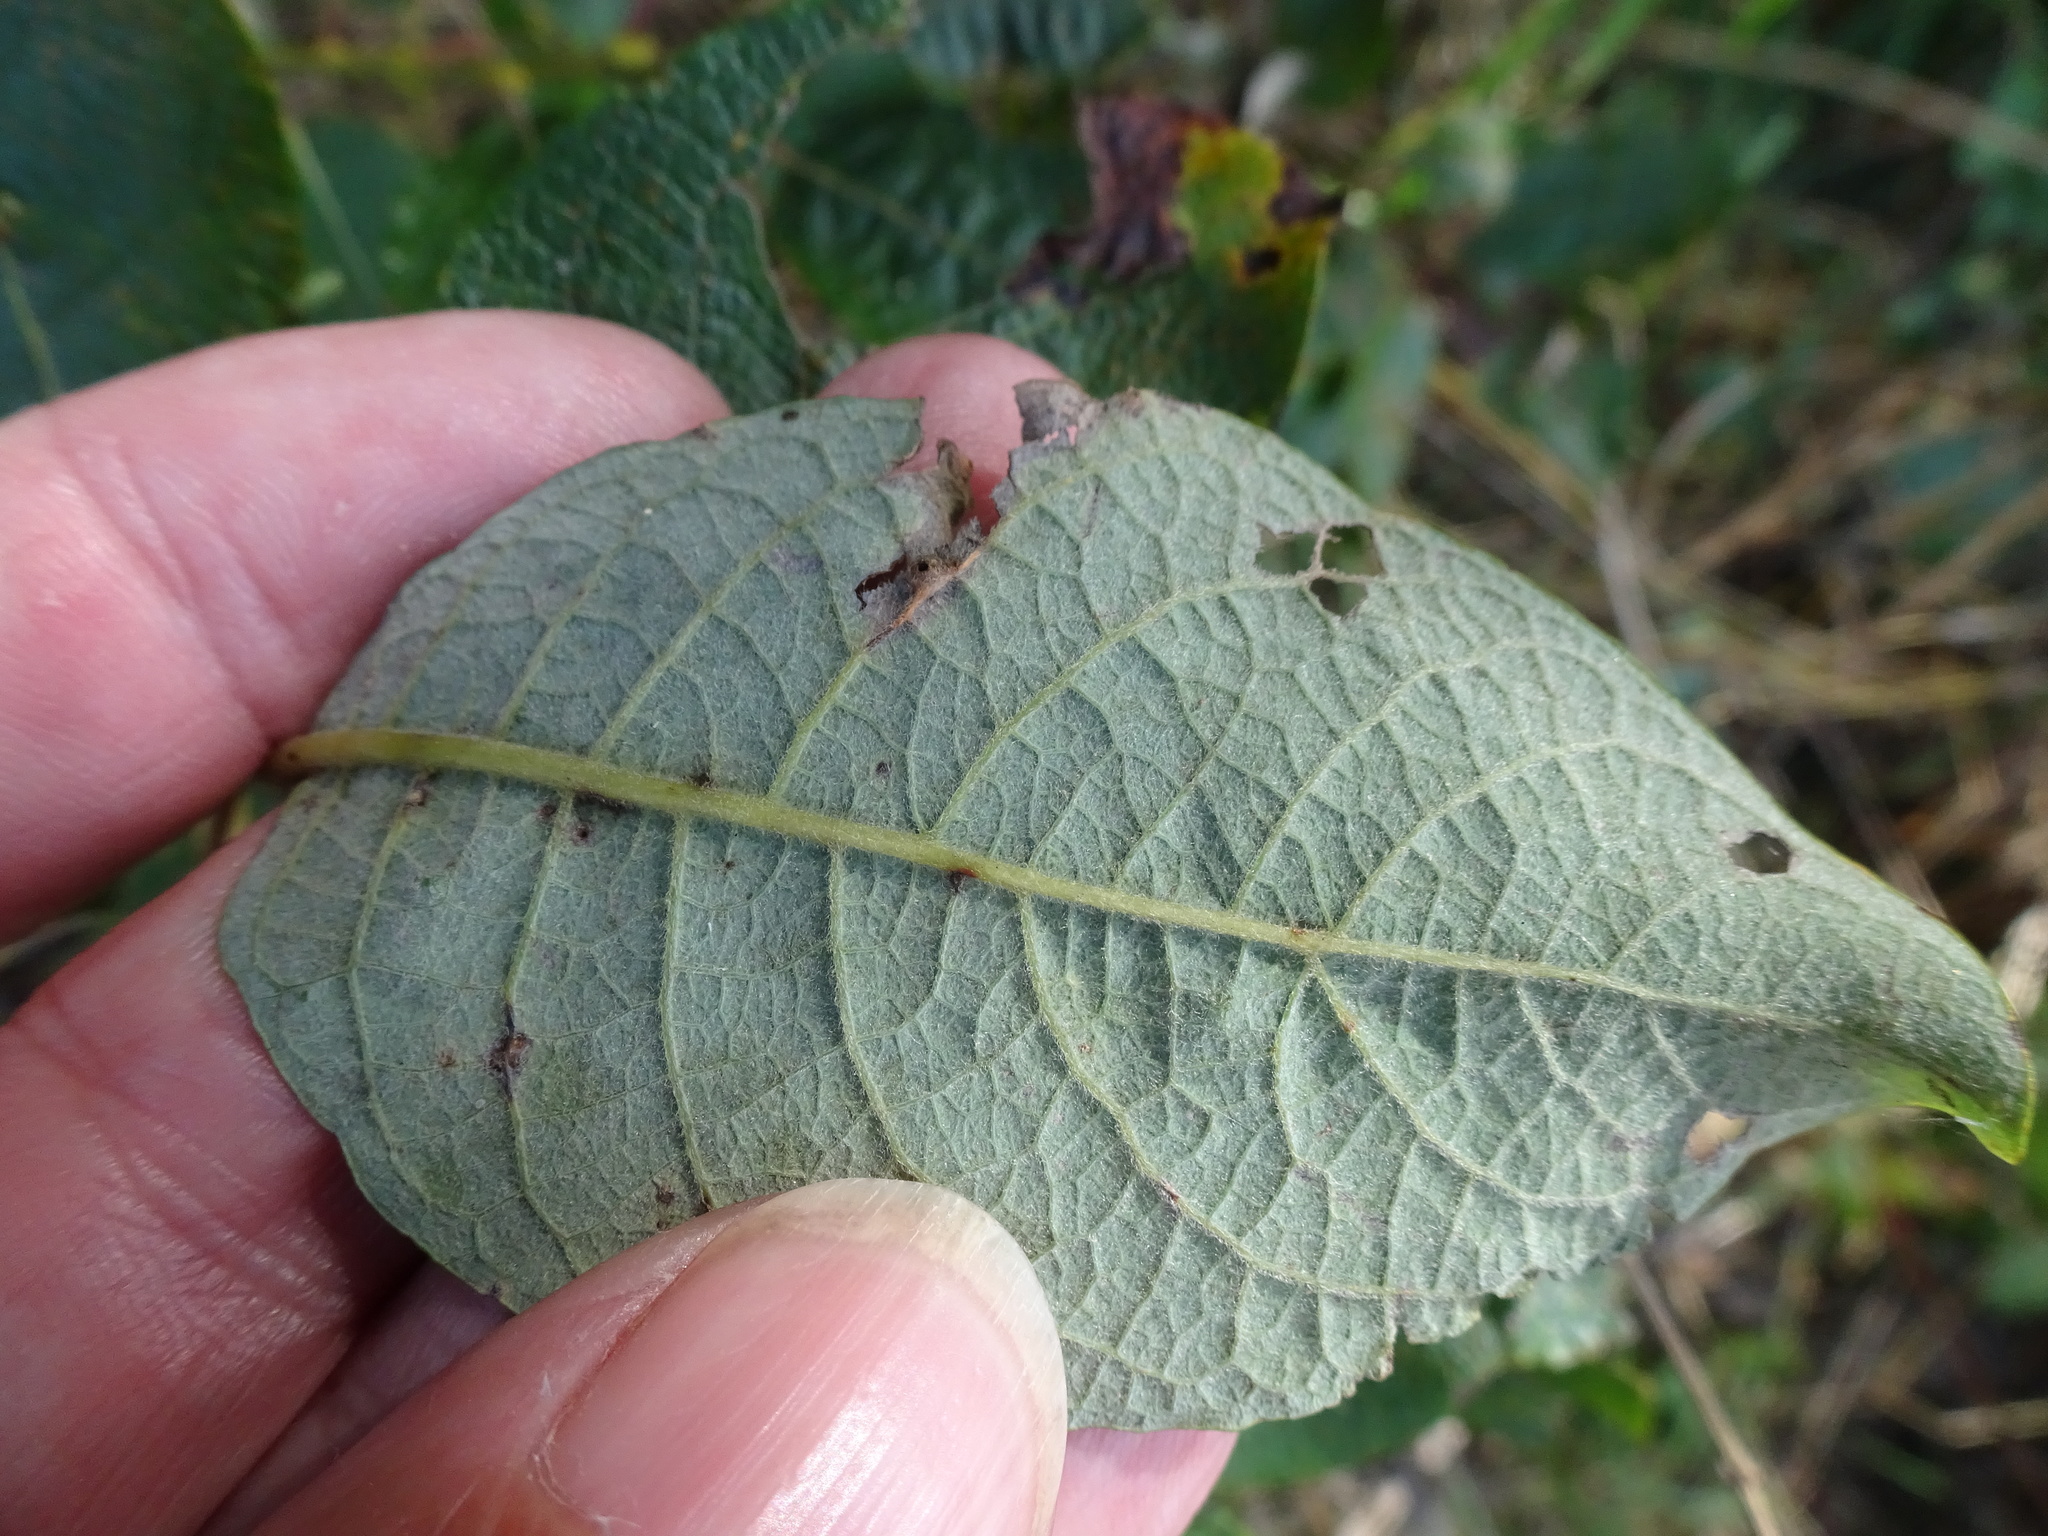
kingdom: Plantae
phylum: Tracheophyta
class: Magnoliopsida
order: Malpighiales
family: Salicaceae
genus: Salix
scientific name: Salix caprea
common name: Goat willow
